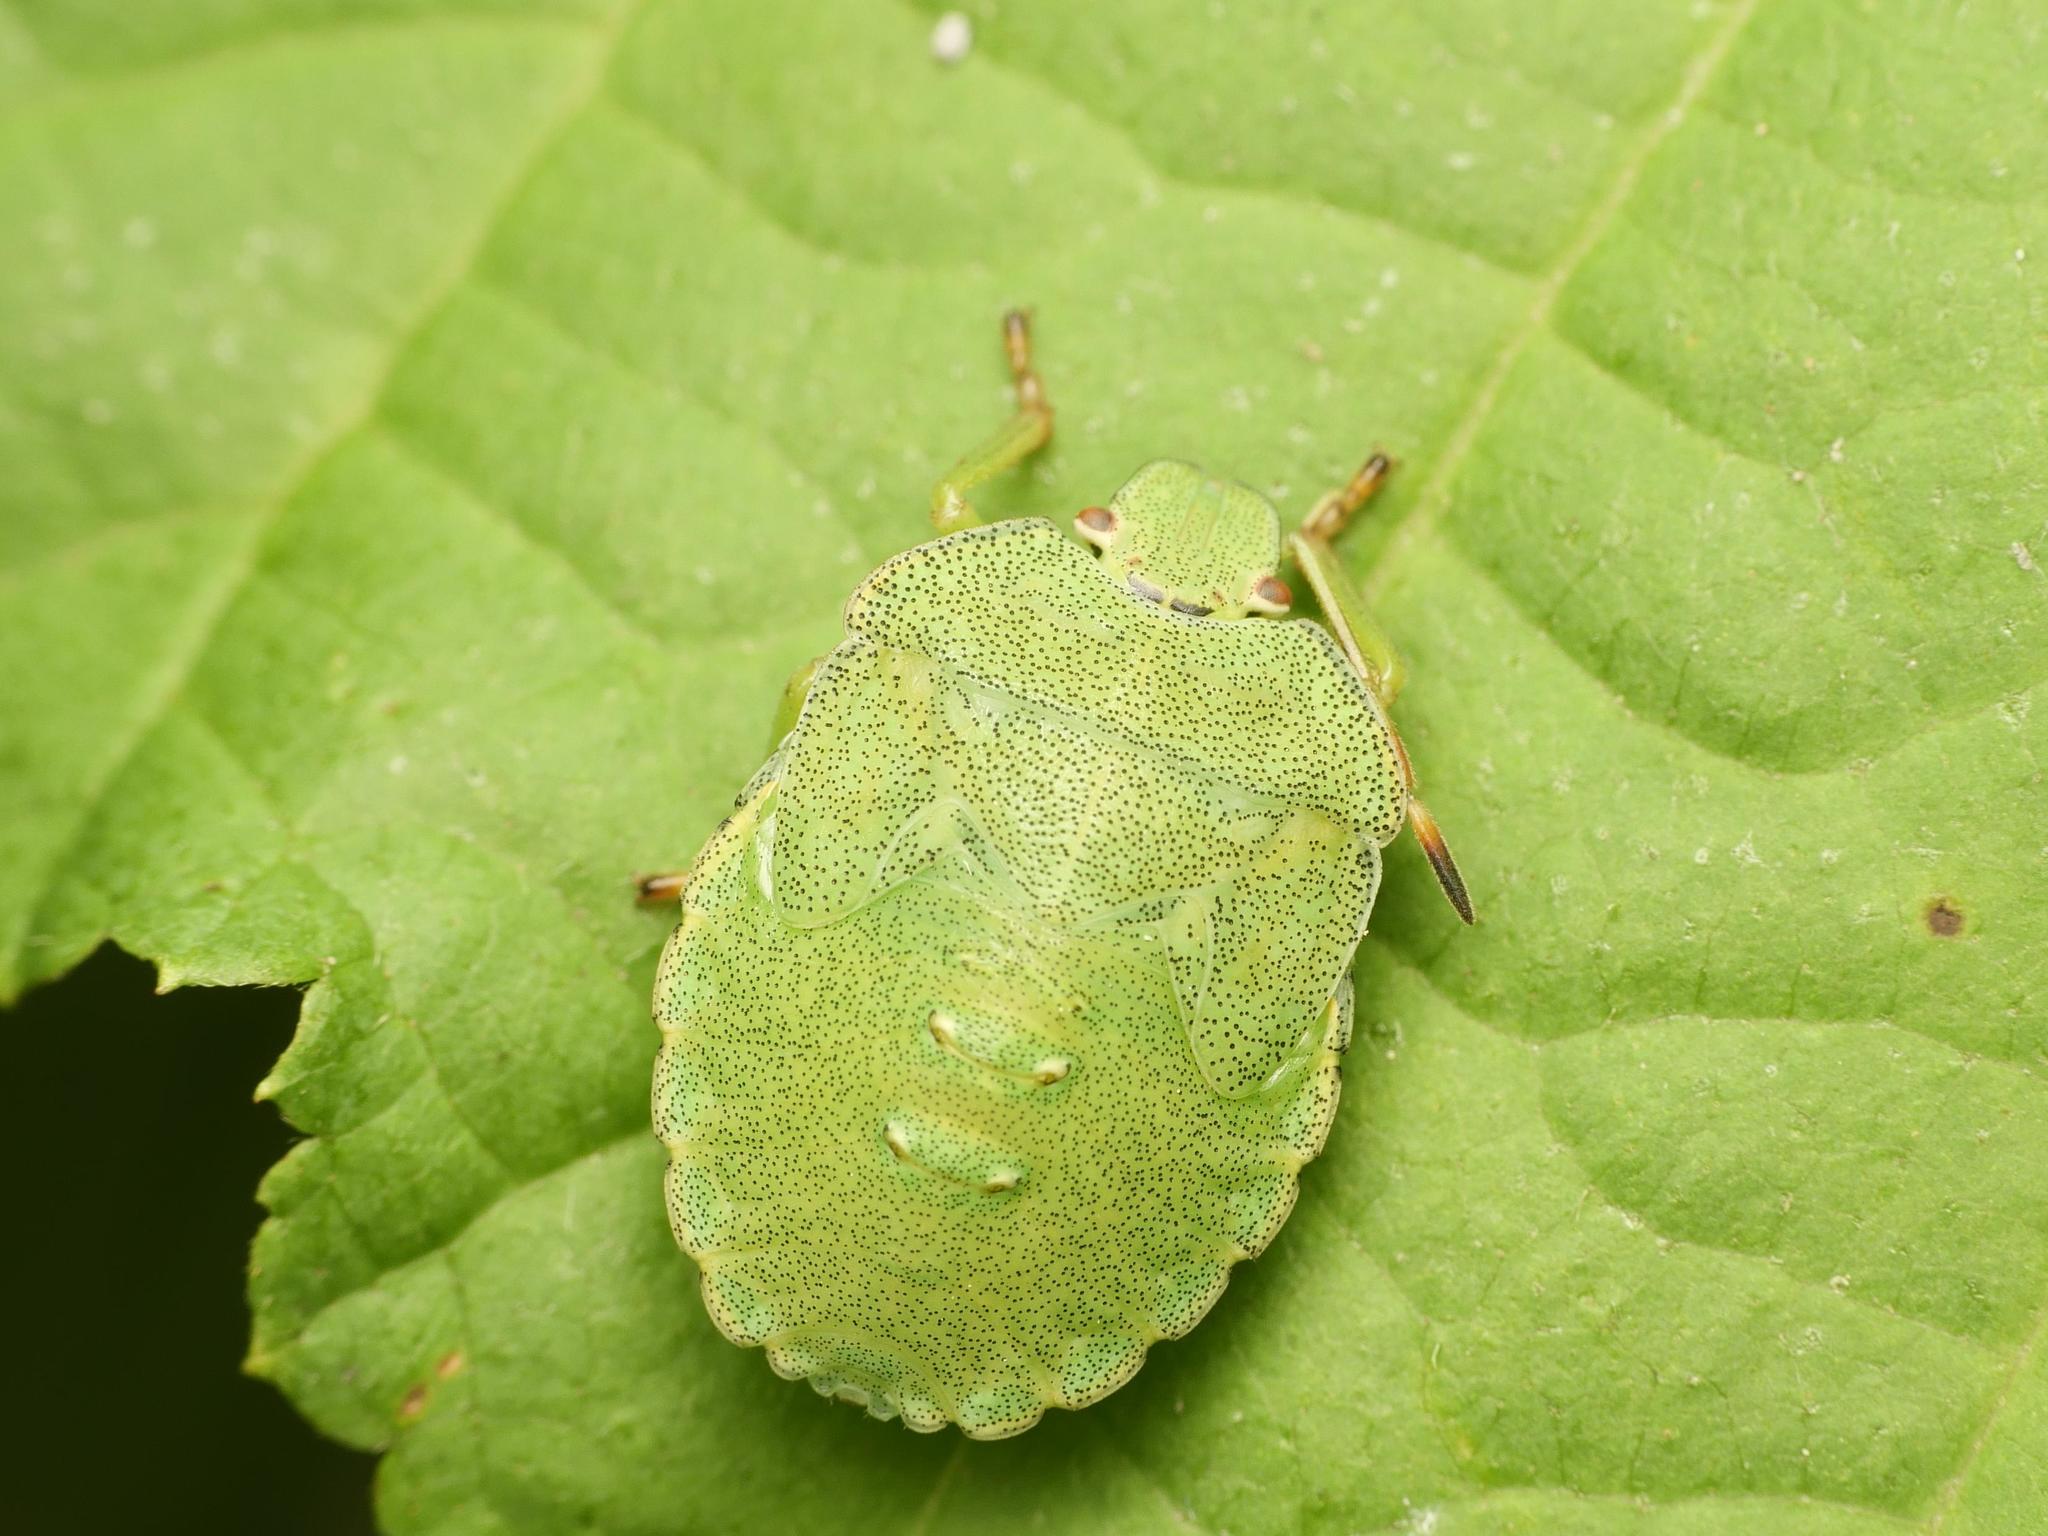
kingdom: Animalia
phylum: Arthropoda
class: Insecta
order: Hemiptera
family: Pentatomidae
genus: Palomena
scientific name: Palomena prasina
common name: Green shieldbug
